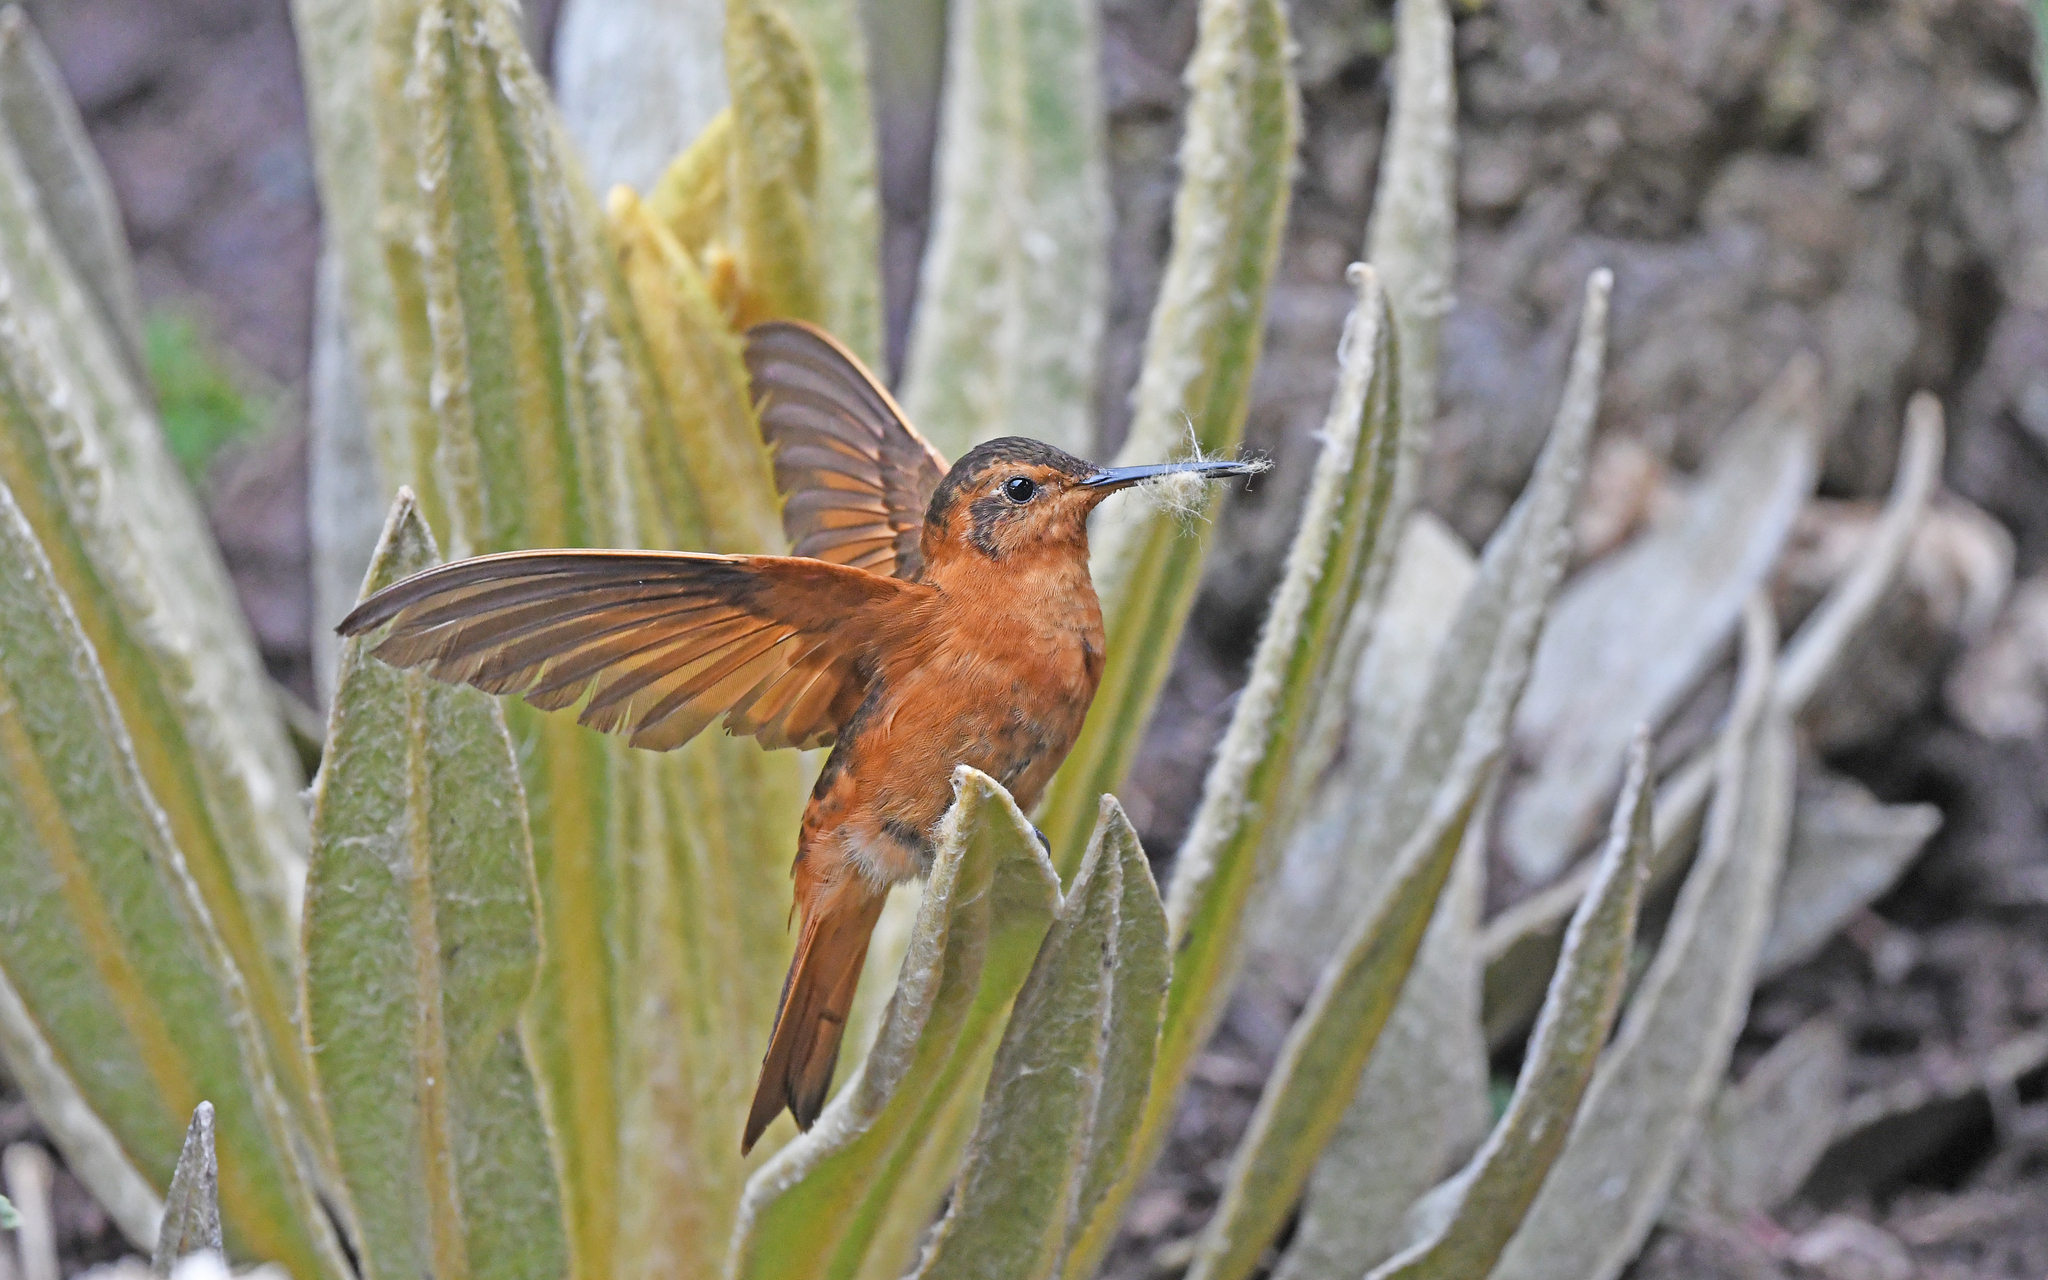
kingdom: Animalia
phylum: Chordata
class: Aves
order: Apodiformes
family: Trochilidae
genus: Aglaeactis
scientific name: Aglaeactis cupripennis
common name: Shining sunbeam
